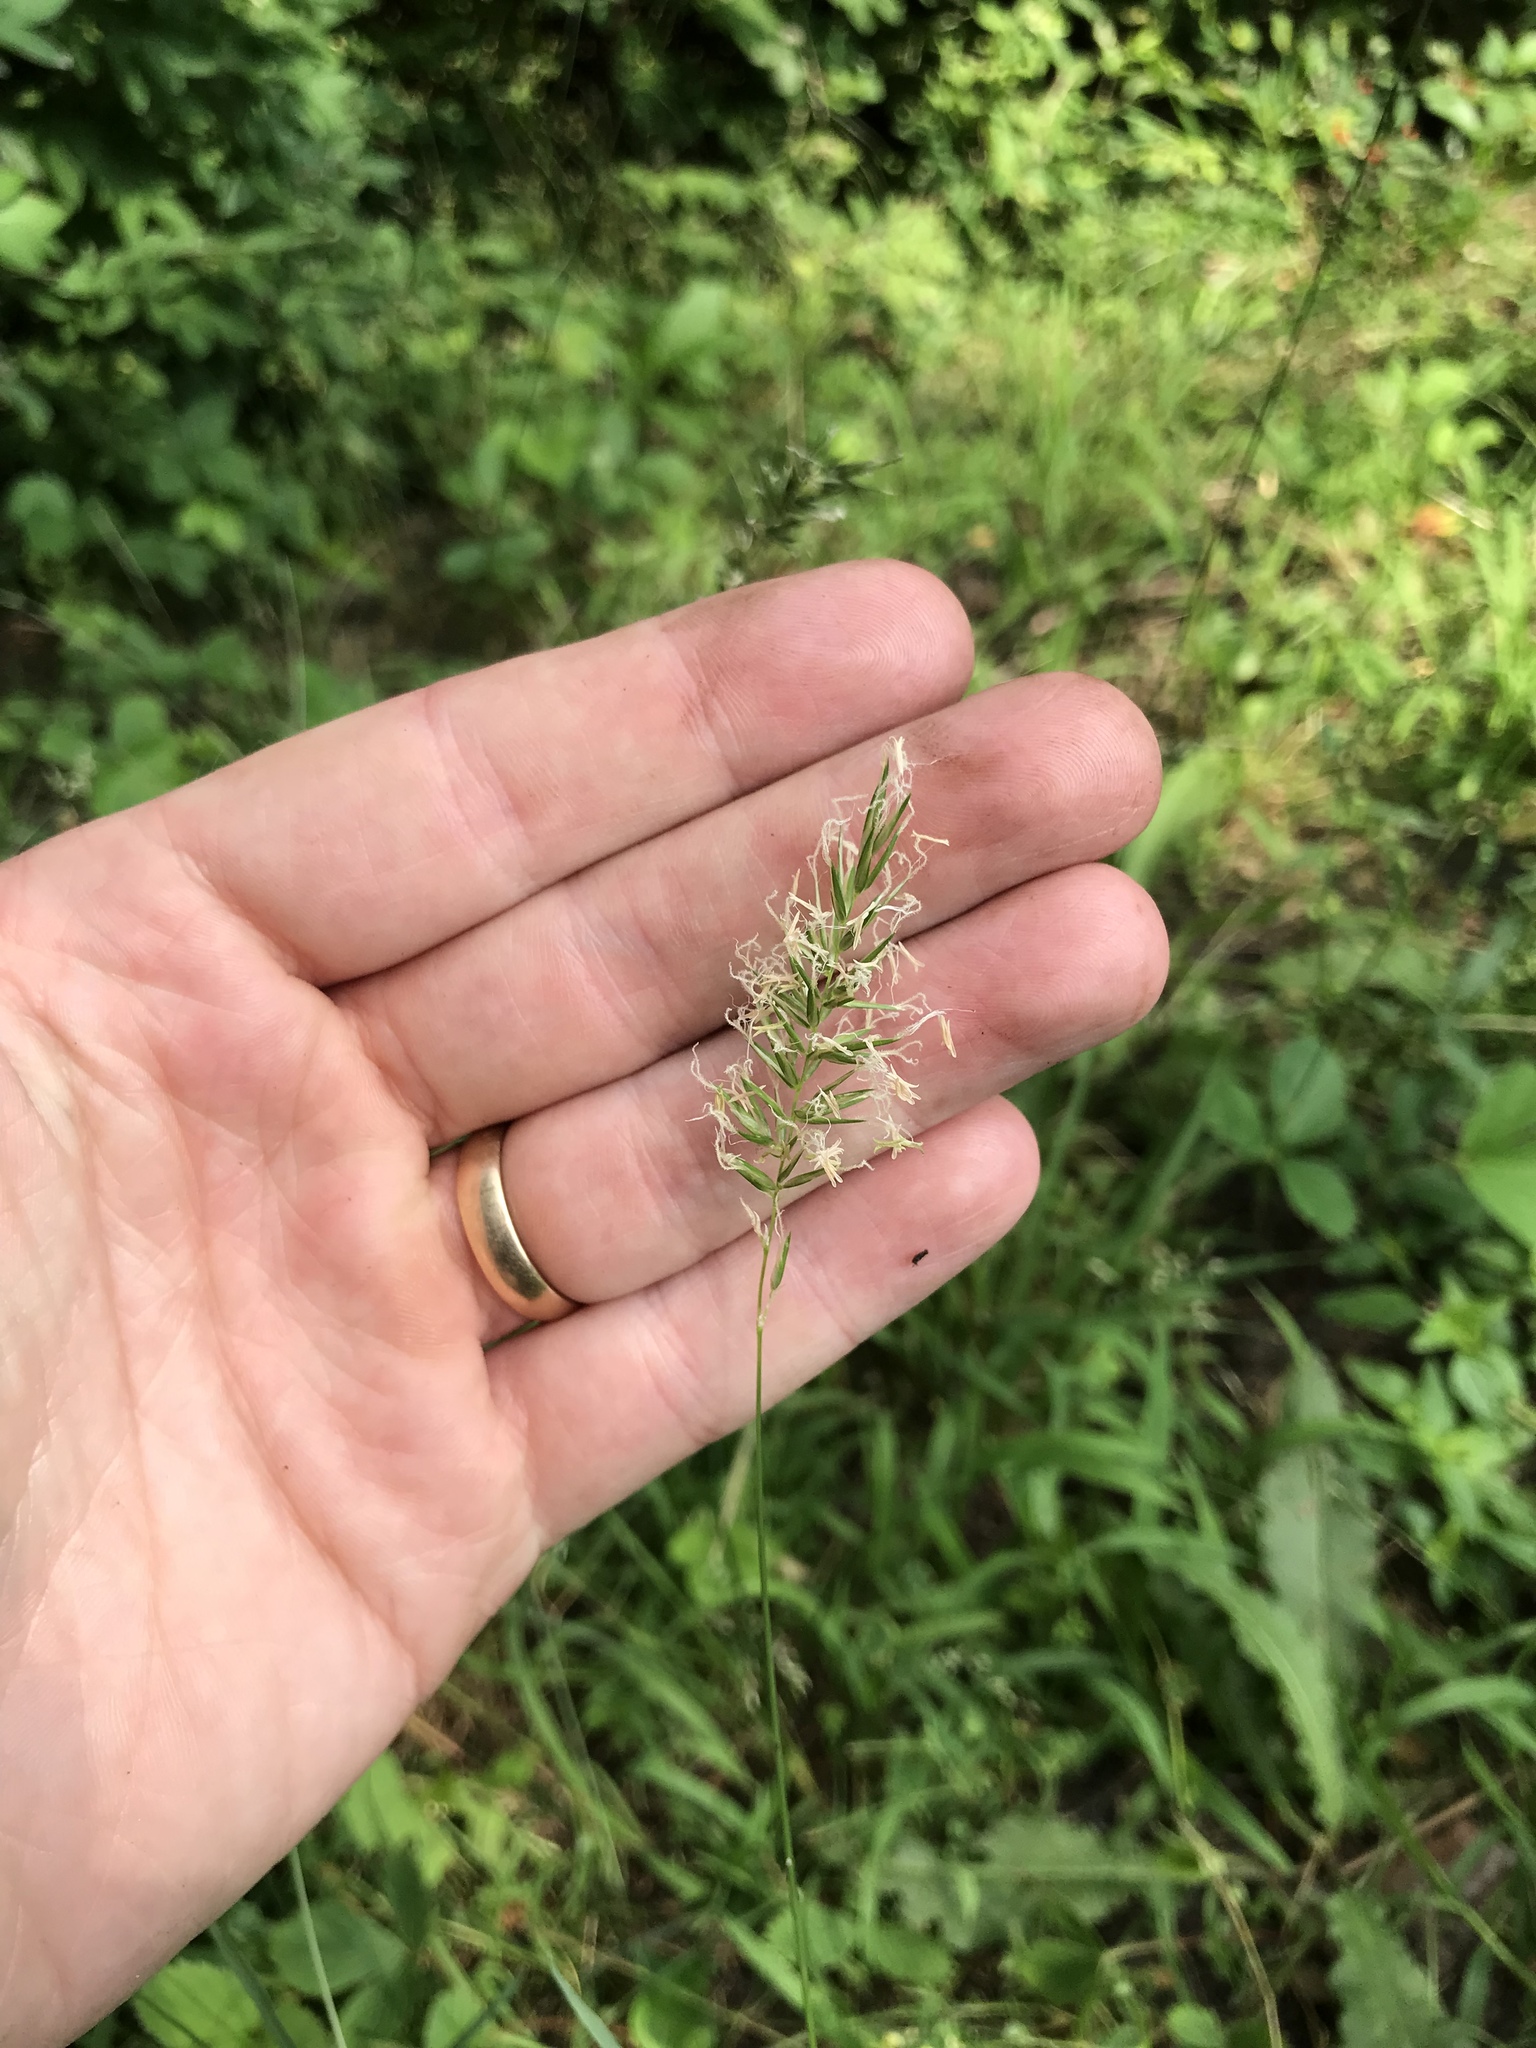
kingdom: Plantae
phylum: Tracheophyta
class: Liliopsida
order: Poales
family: Poaceae
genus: Anthoxanthum
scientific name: Anthoxanthum odoratum
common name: Sweet vernalgrass
